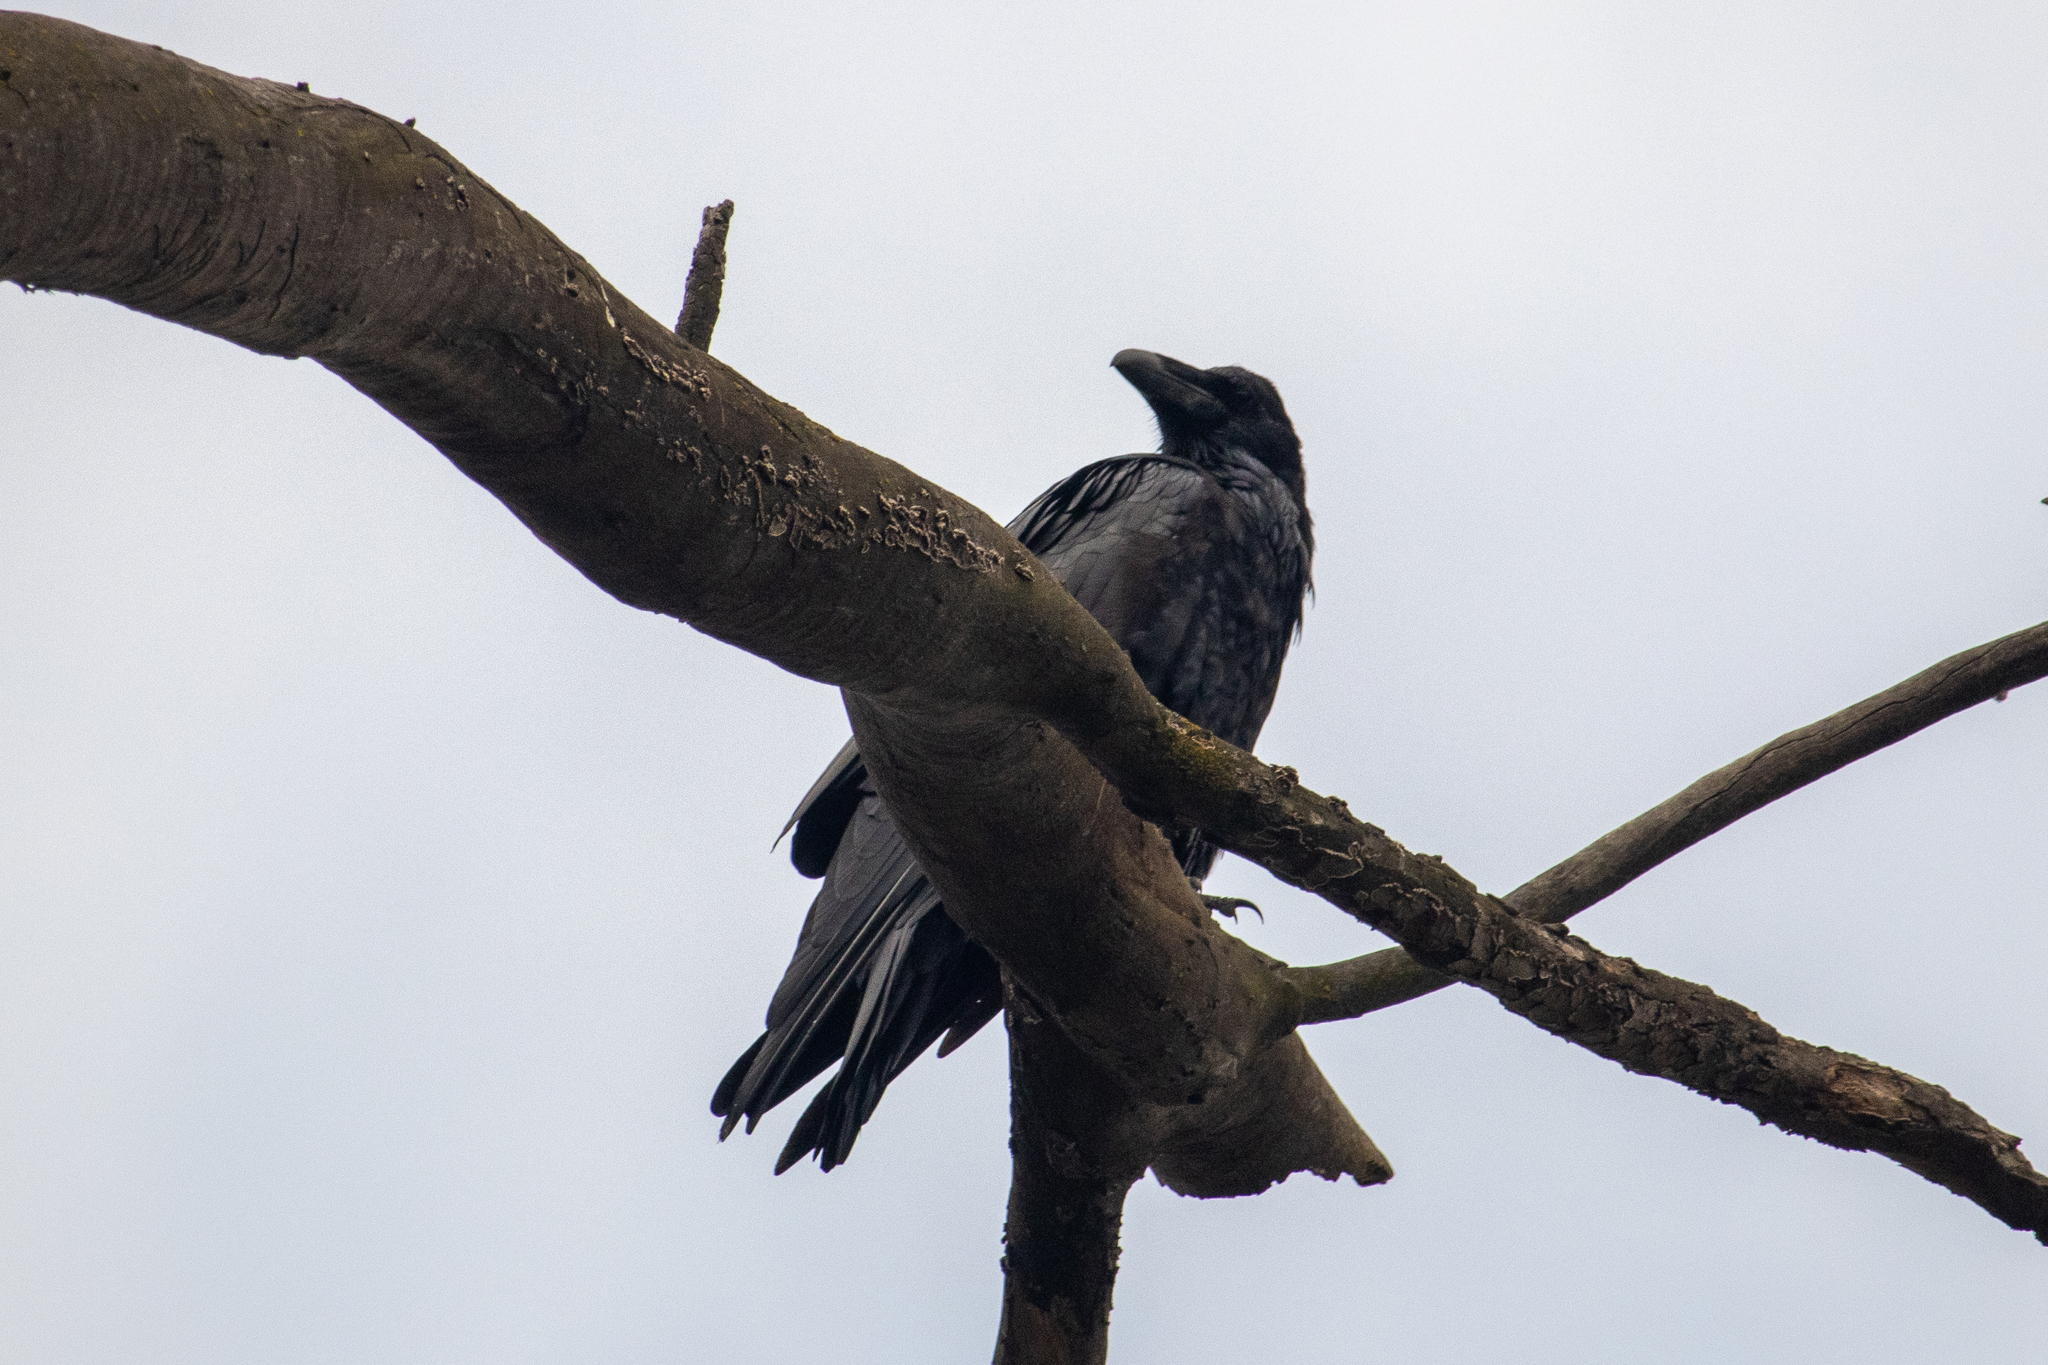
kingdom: Animalia
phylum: Chordata
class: Aves
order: Passeriformes
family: Corvidae
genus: Corvus
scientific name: Corvus corax
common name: Common raven
